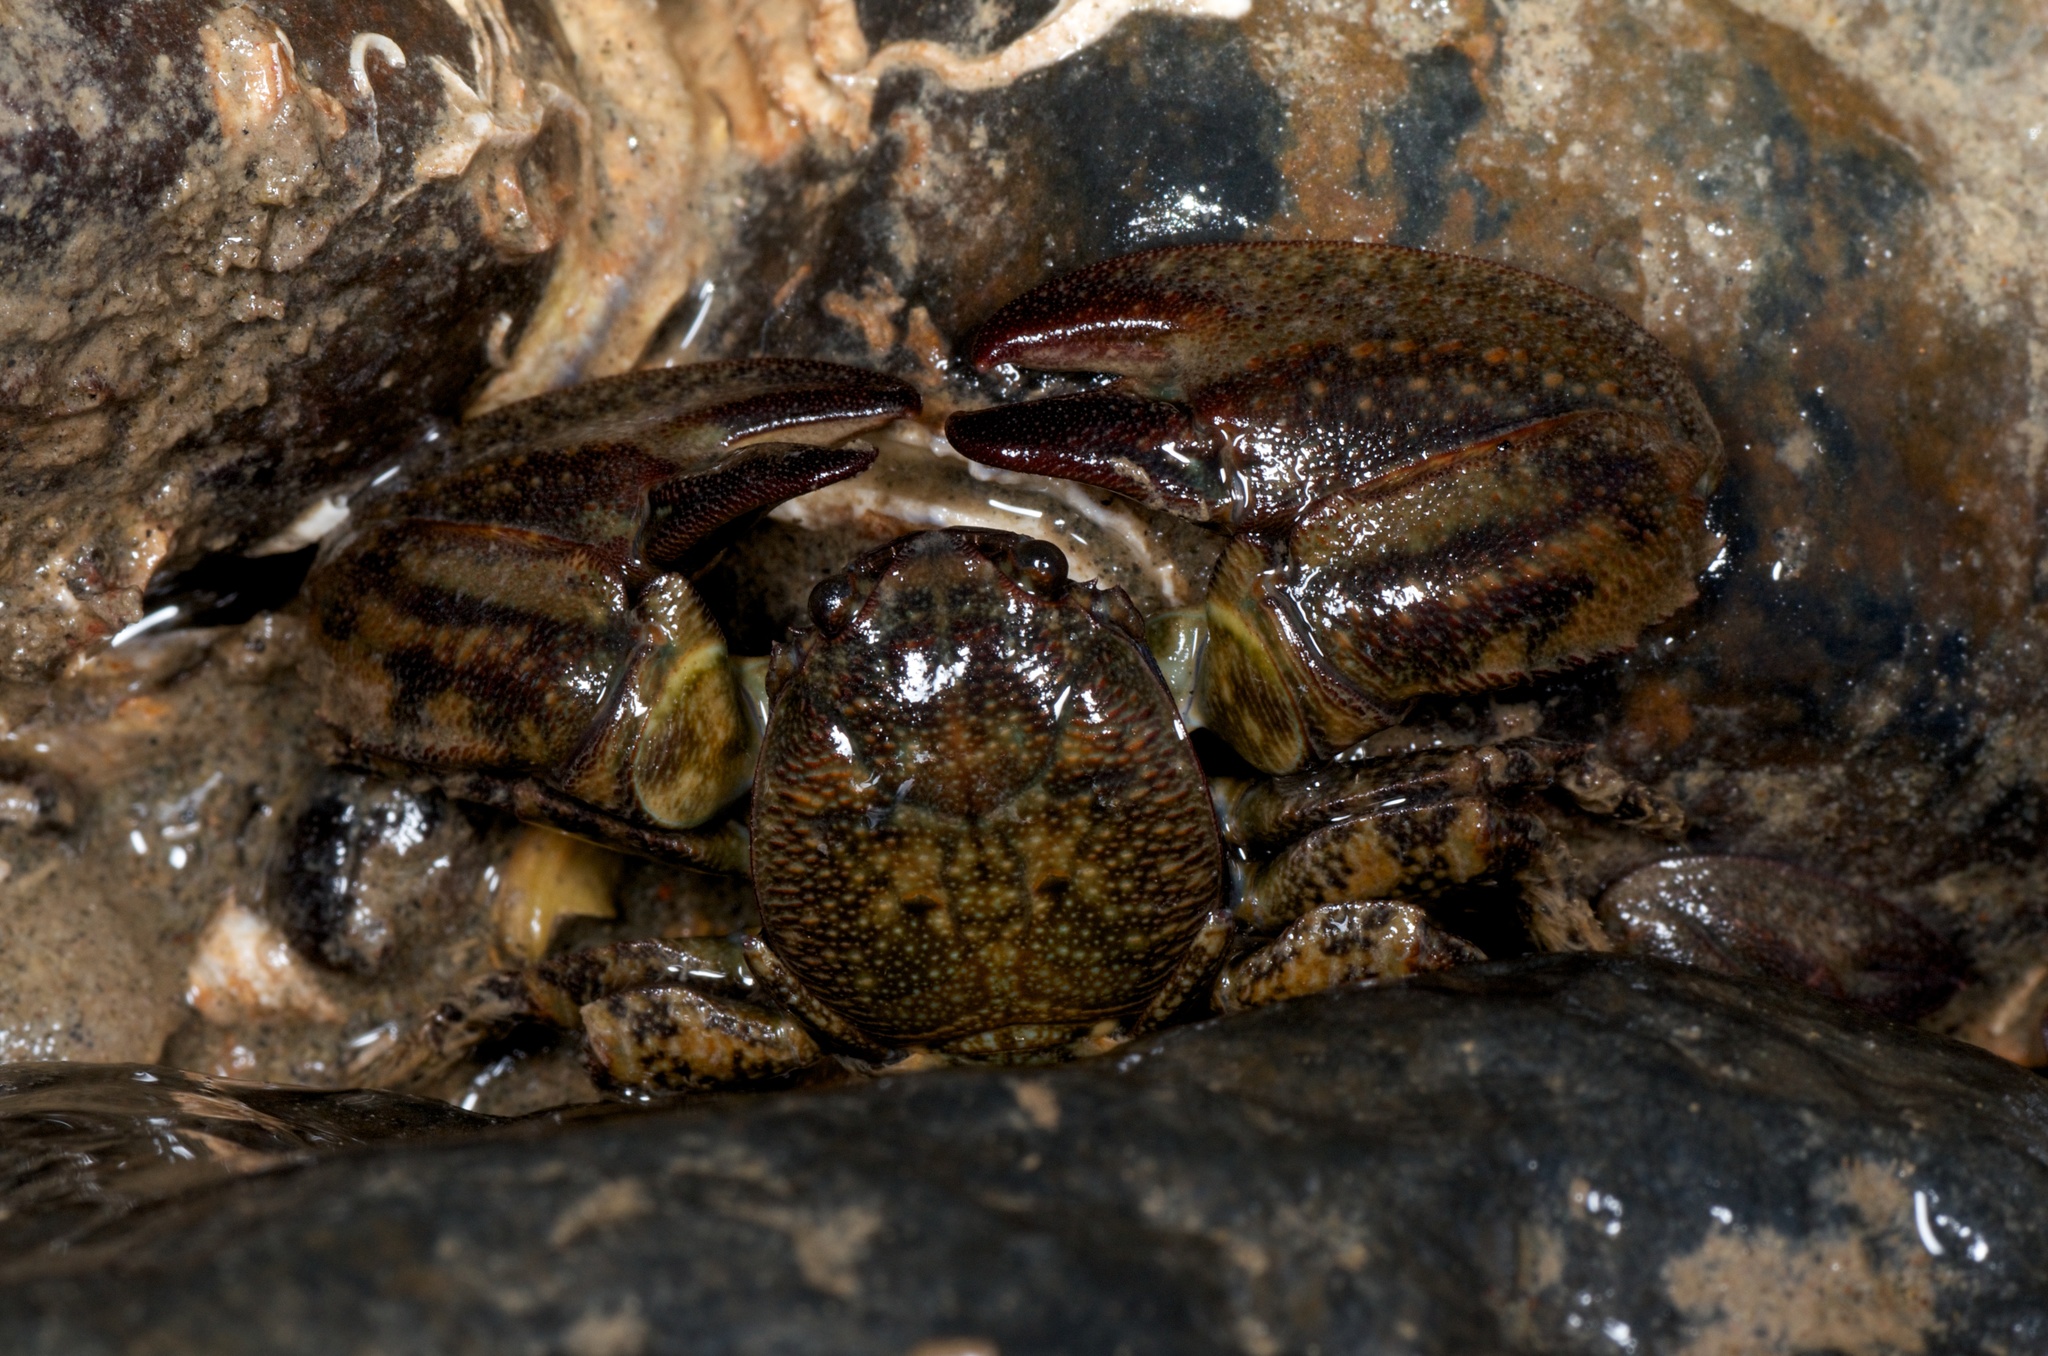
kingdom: Animalia
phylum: Arthropoda
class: Malacostraca
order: Decapoda
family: Porcellanidae
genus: Petrolisthes
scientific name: Petrolisthes elongatus
